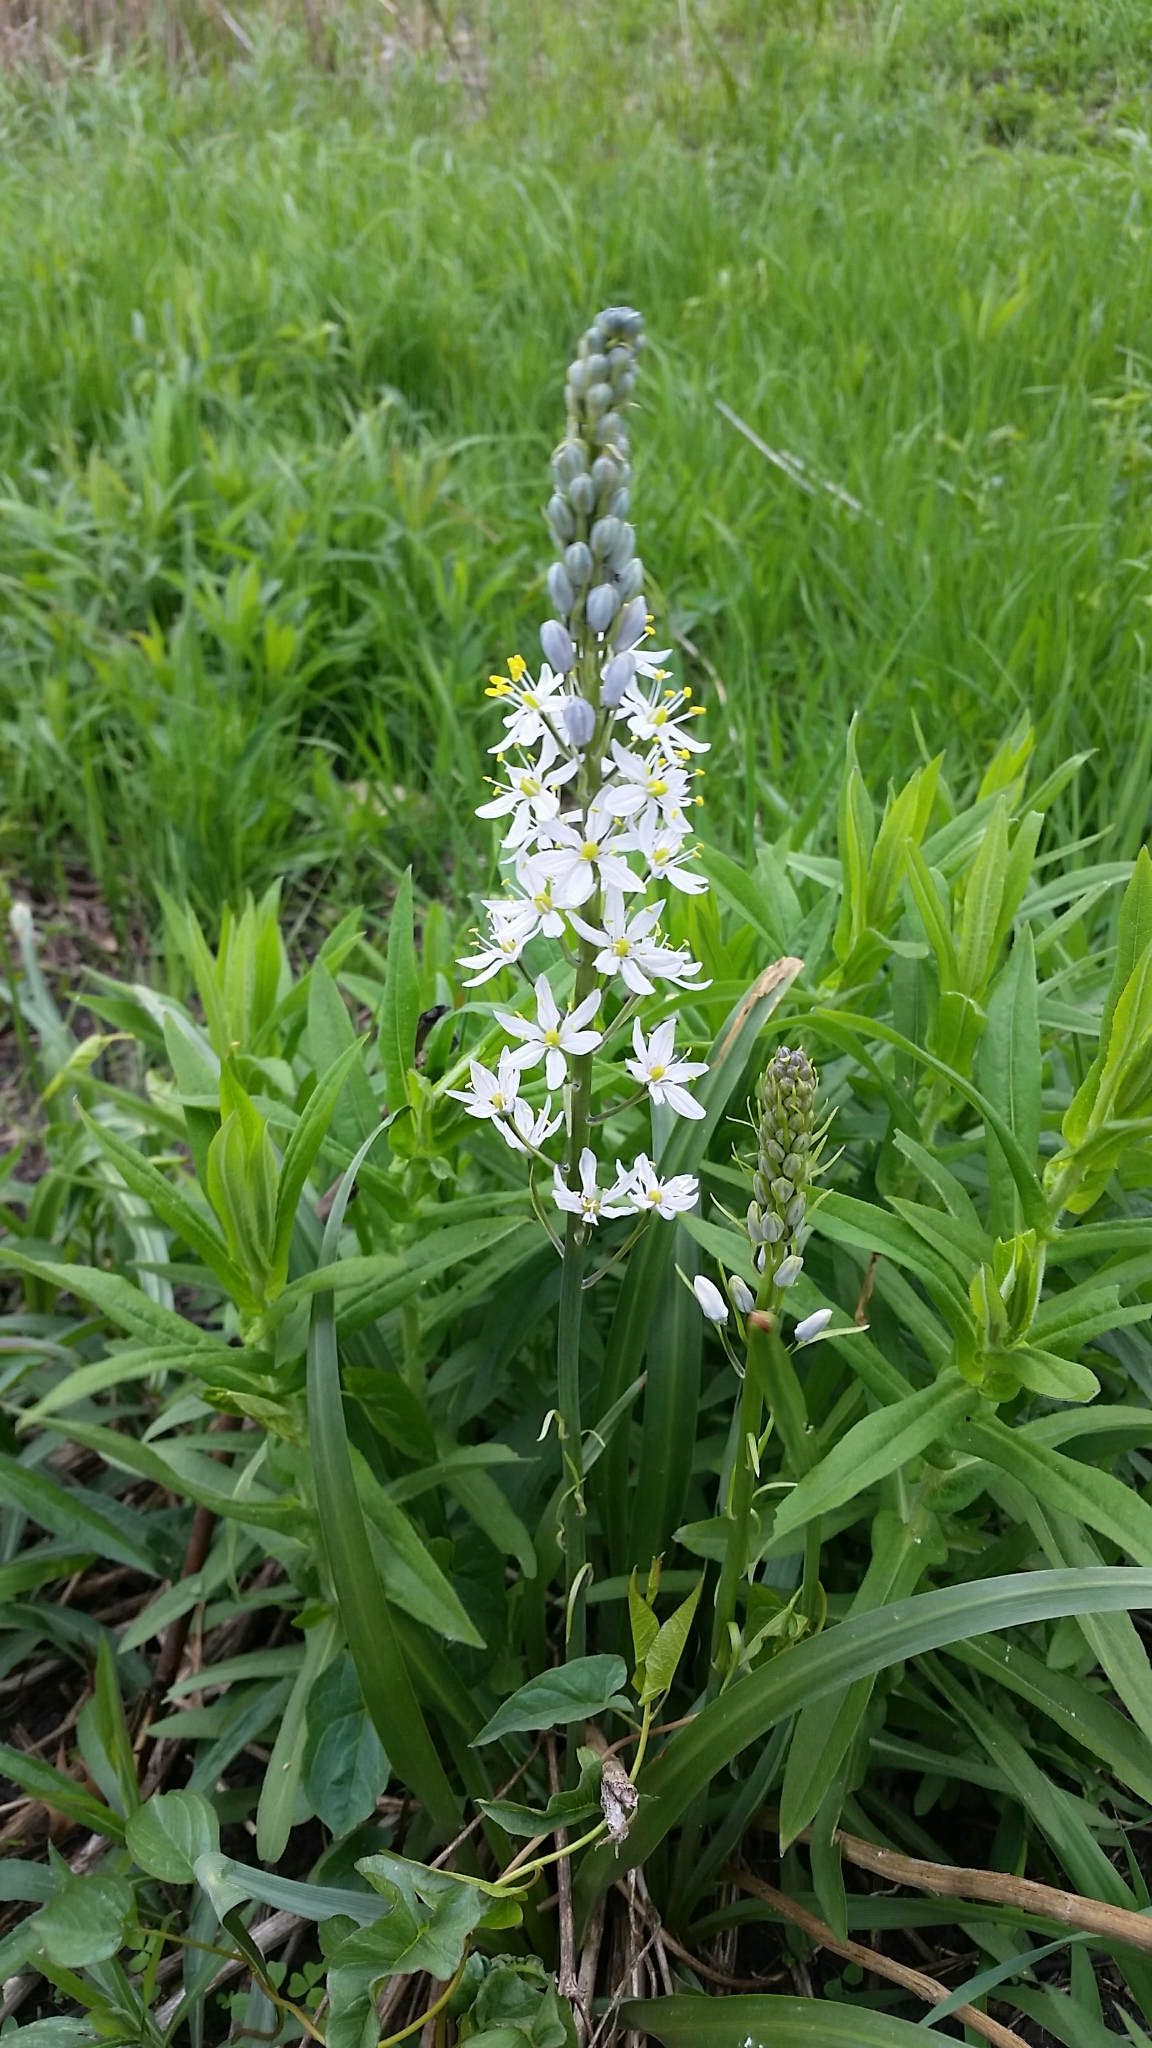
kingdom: Plantae
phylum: Tracheophyta
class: Liliopsida
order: Asparagales
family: Asparagaceae
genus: Camassia
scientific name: Camassia scilloides
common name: Wild hyacinth
